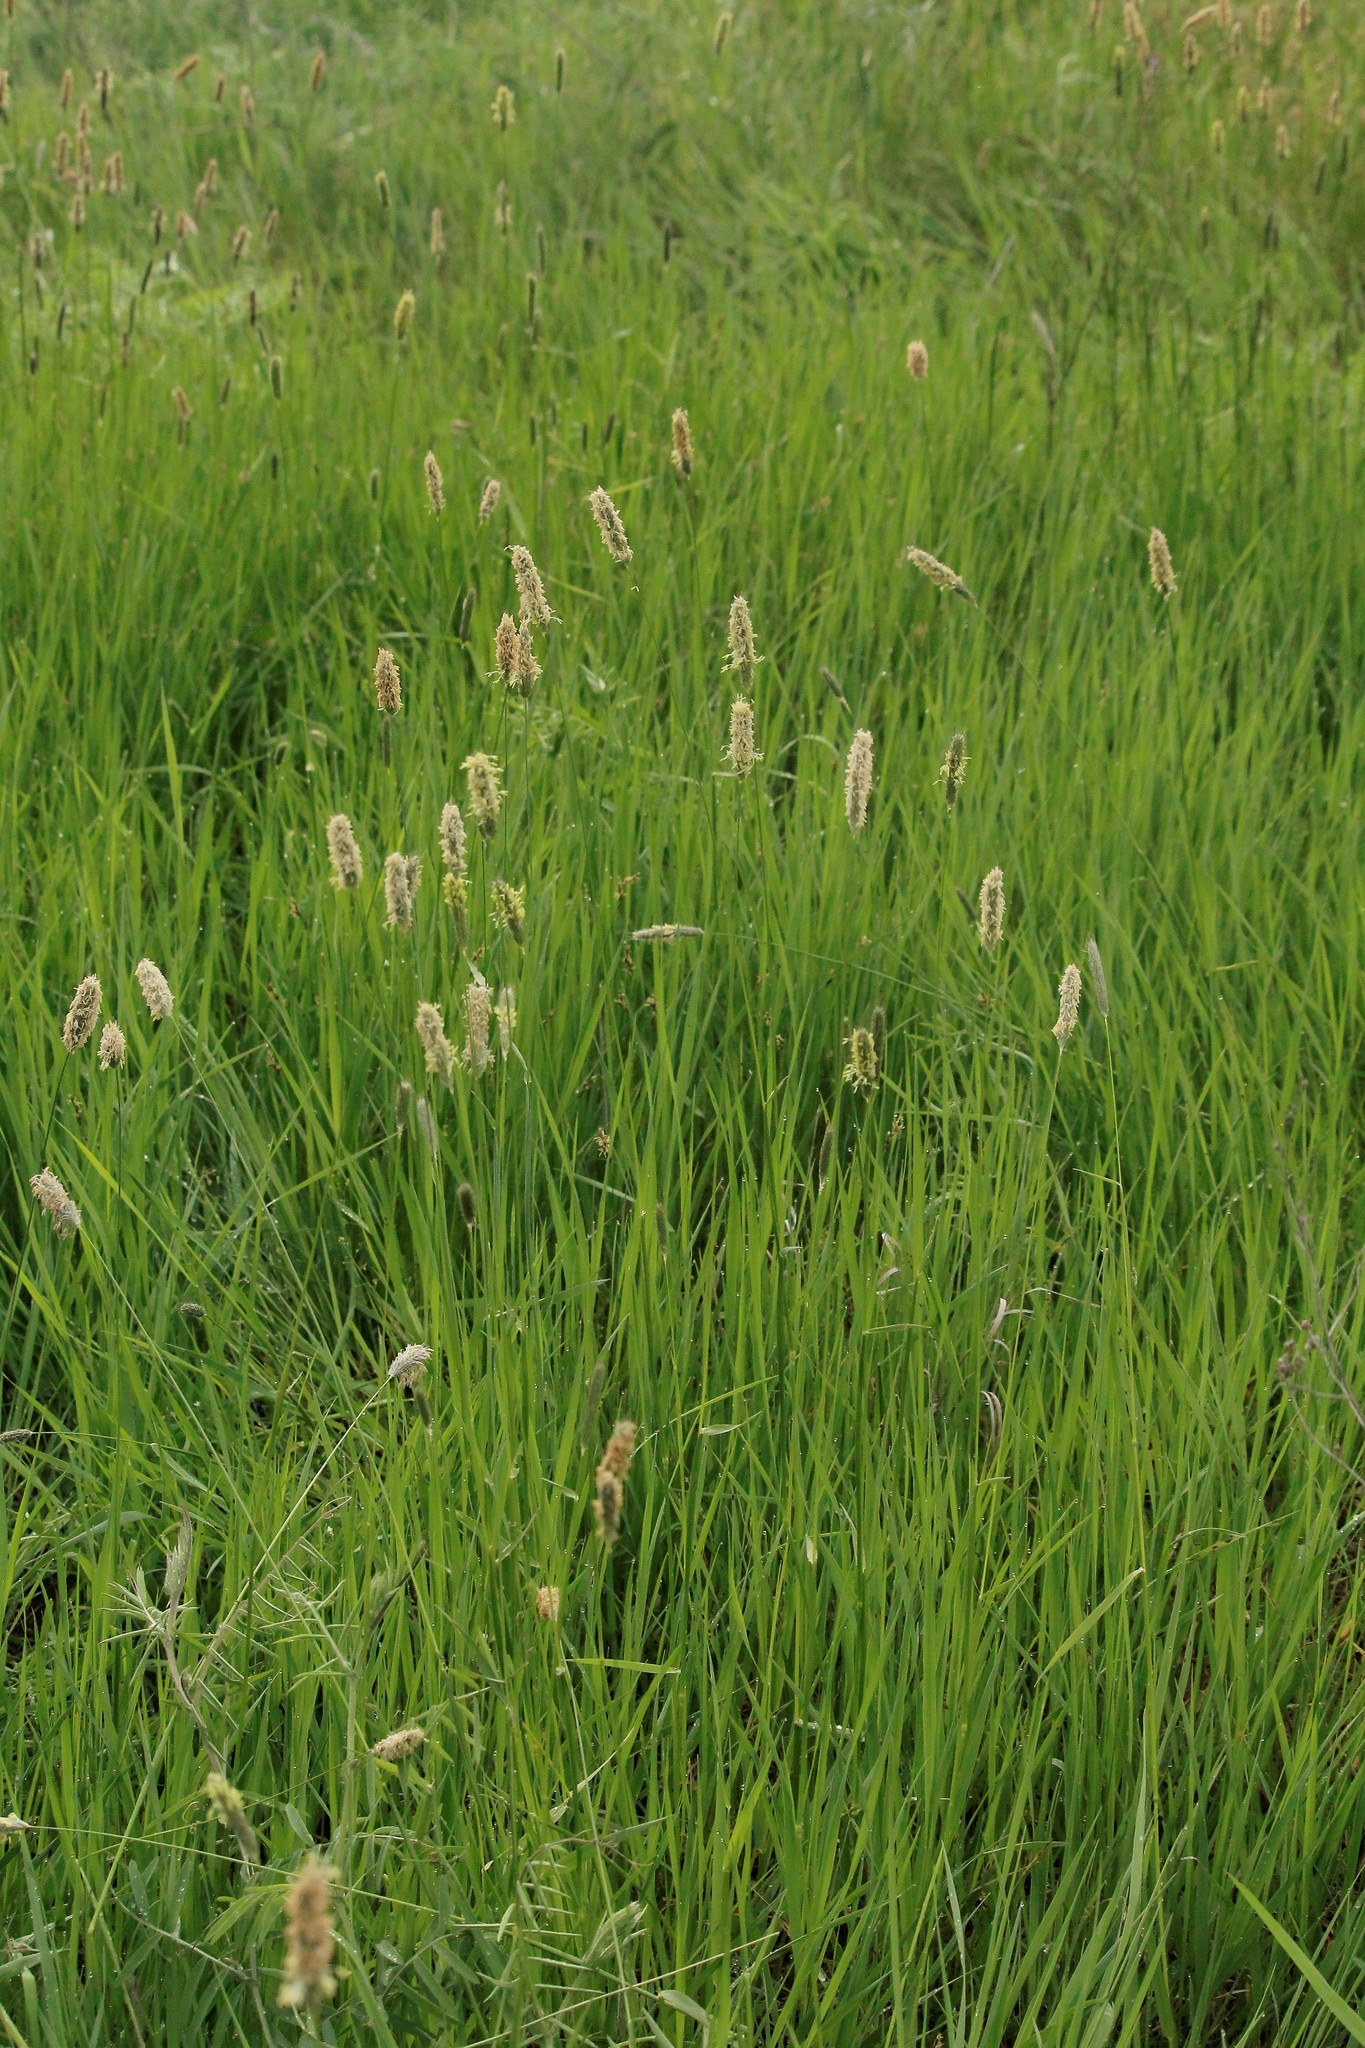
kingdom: Plantae
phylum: Tracheophyta
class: Liliopsida
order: Poales
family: Poaceae
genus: Alopecurus
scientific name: Alopecurus pratensis
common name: Meadow foxtail
